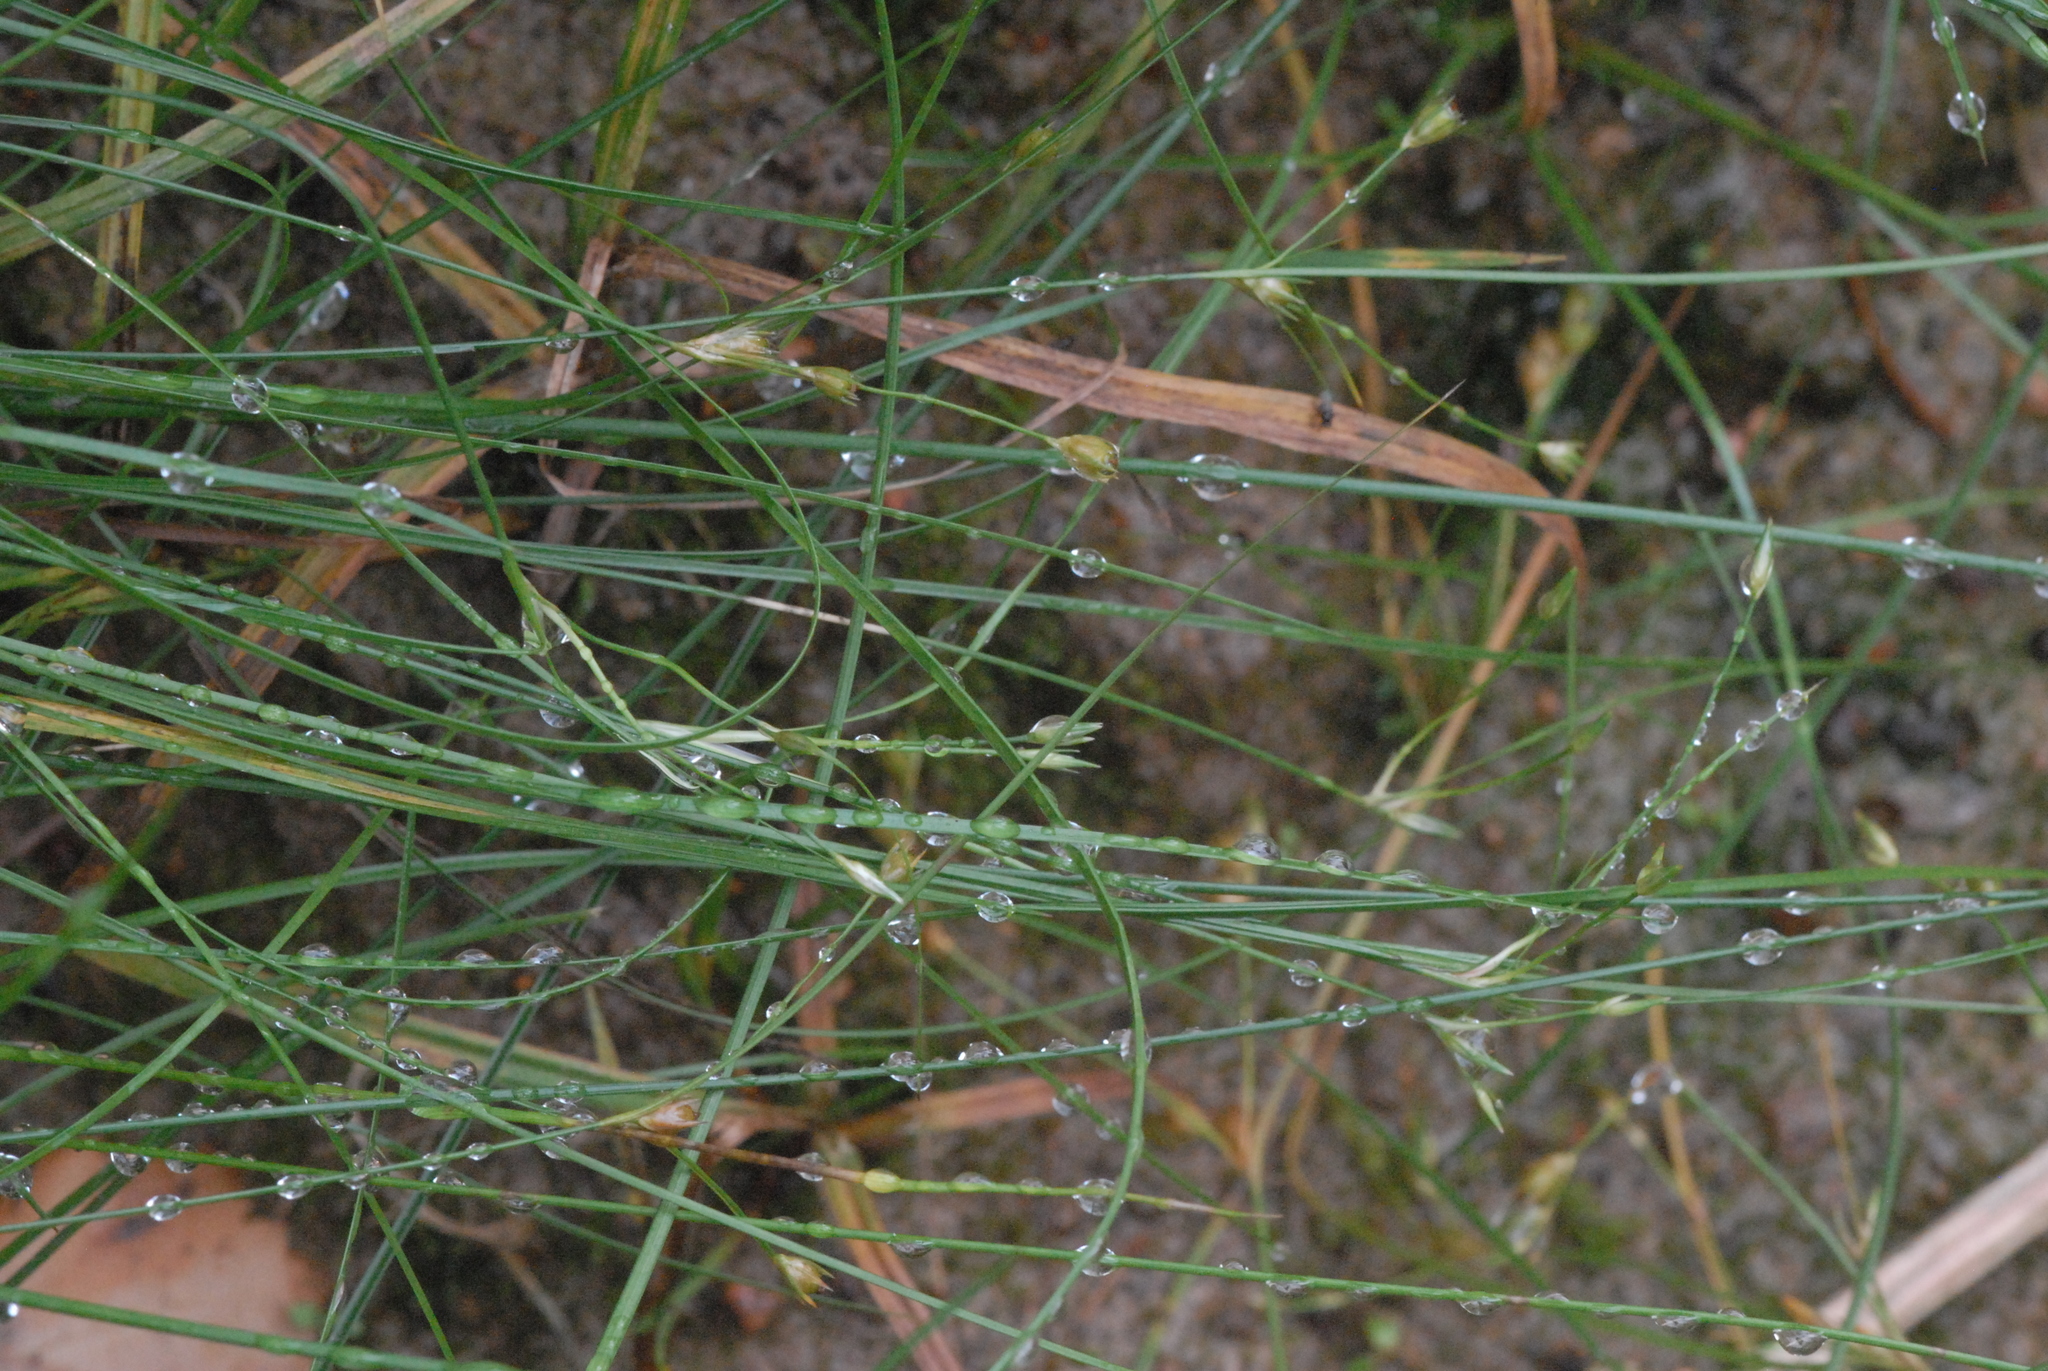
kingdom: Plantae
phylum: Tracheophyta
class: Liliopsida
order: Poales
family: Juncaceae
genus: Juncus
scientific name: Juncus bufonius
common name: Toad rush
